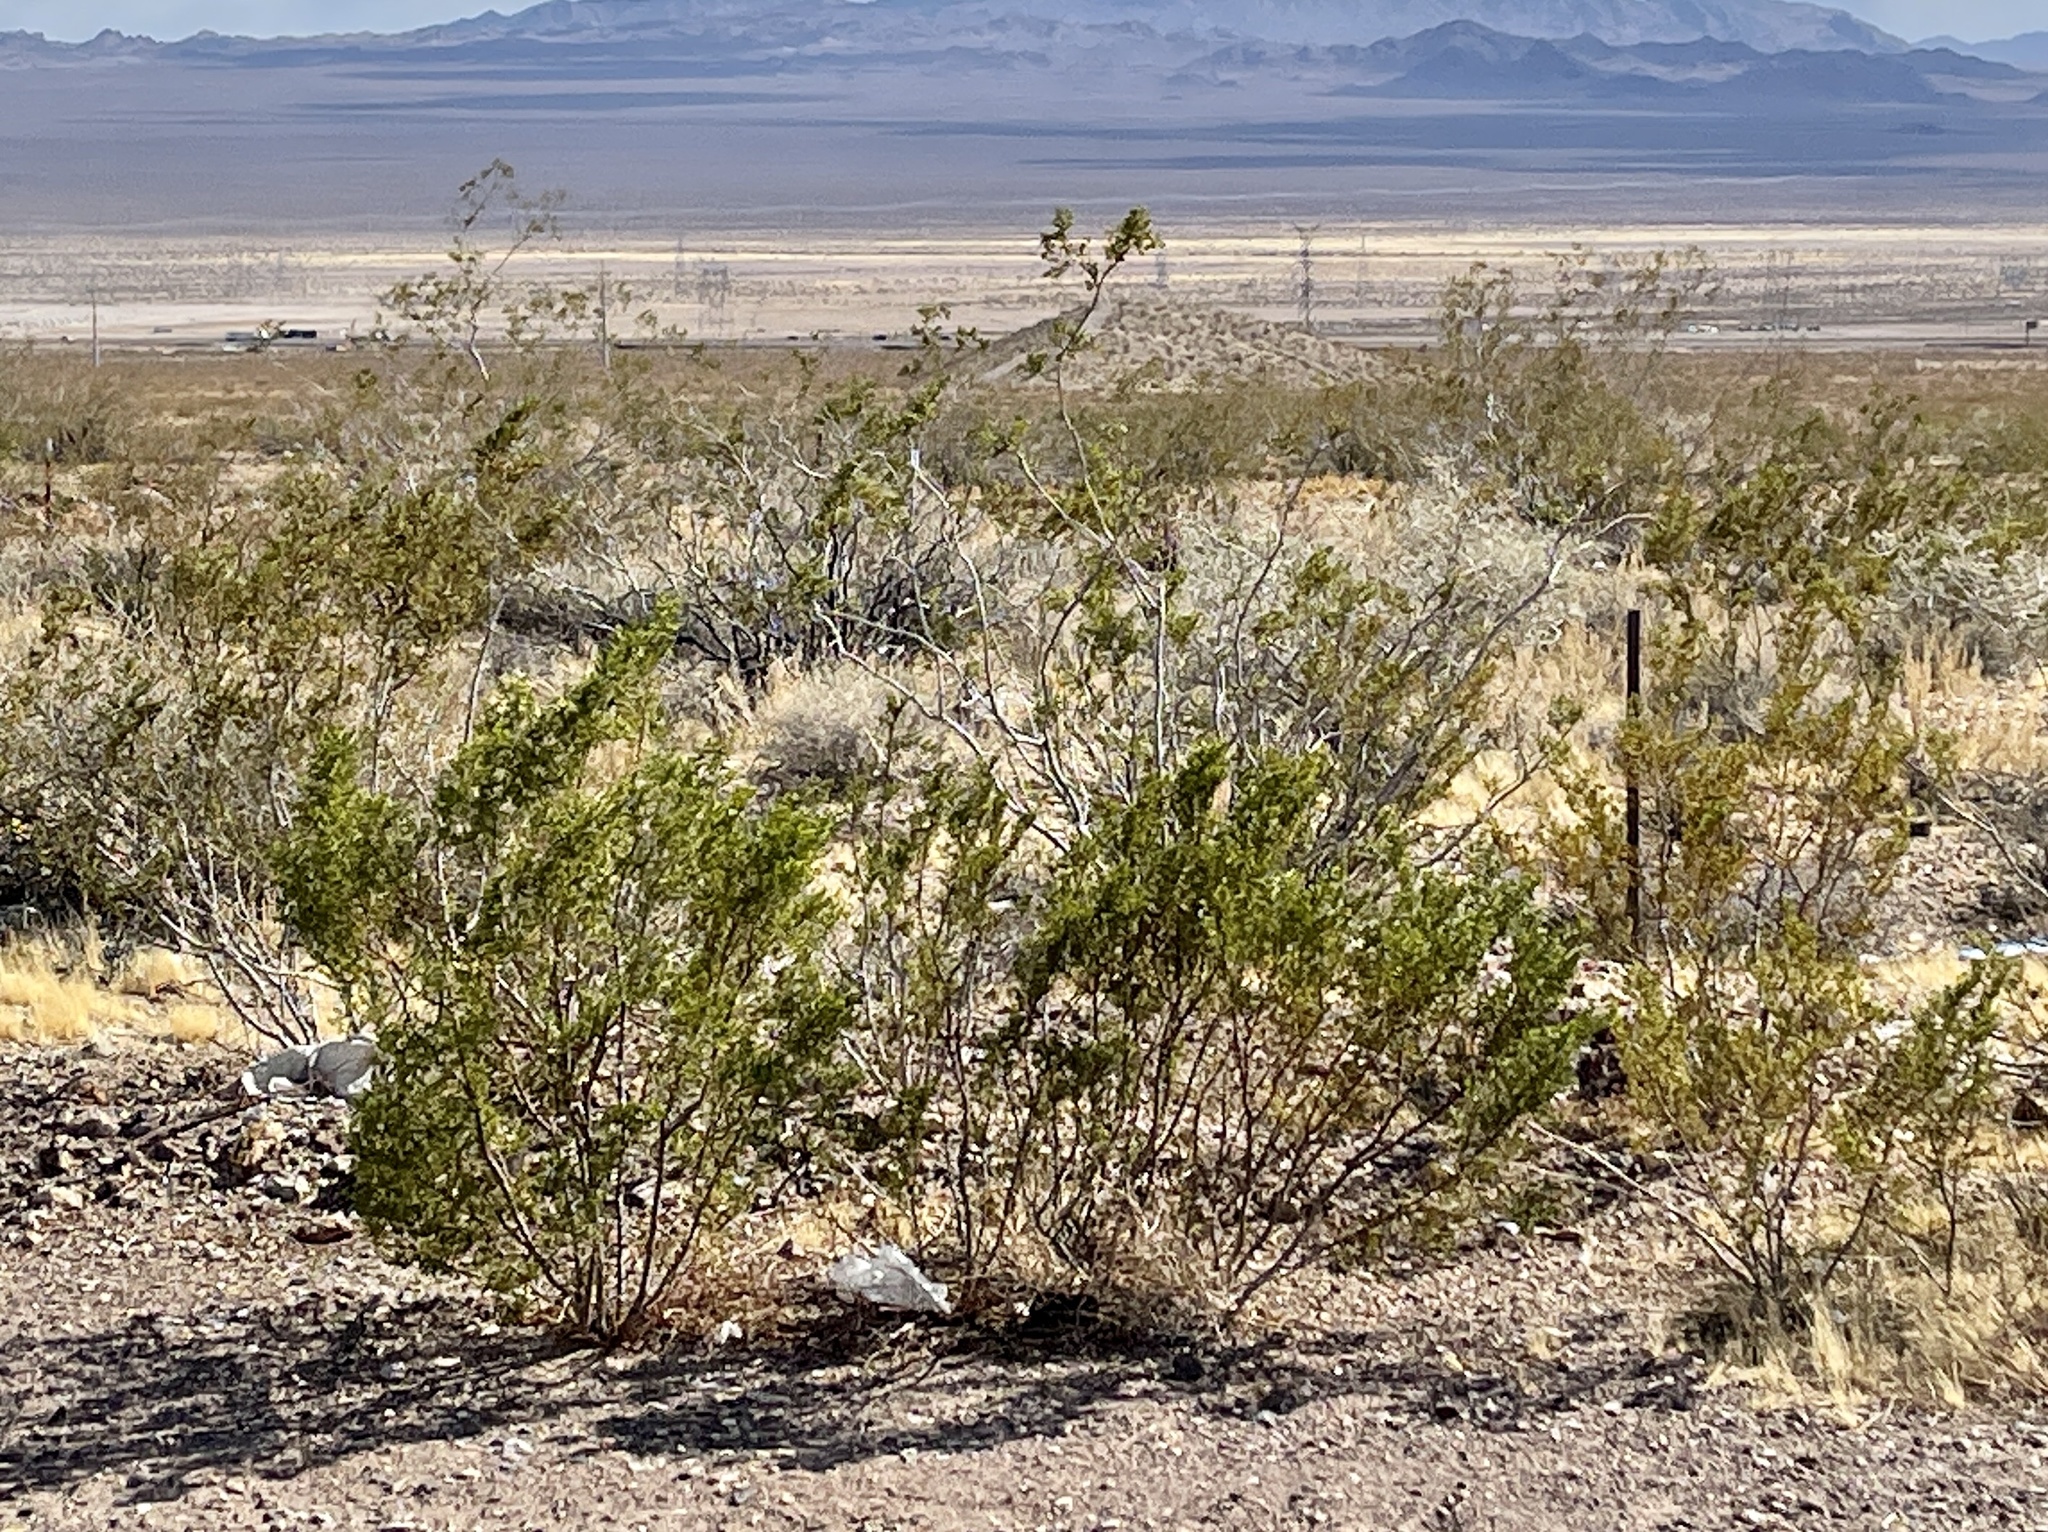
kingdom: Plantae
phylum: Tracheophyta
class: Magnoliopsida
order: Zygophyllales
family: Zygophyllaceae
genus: Larrea
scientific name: Larrea tridentata
